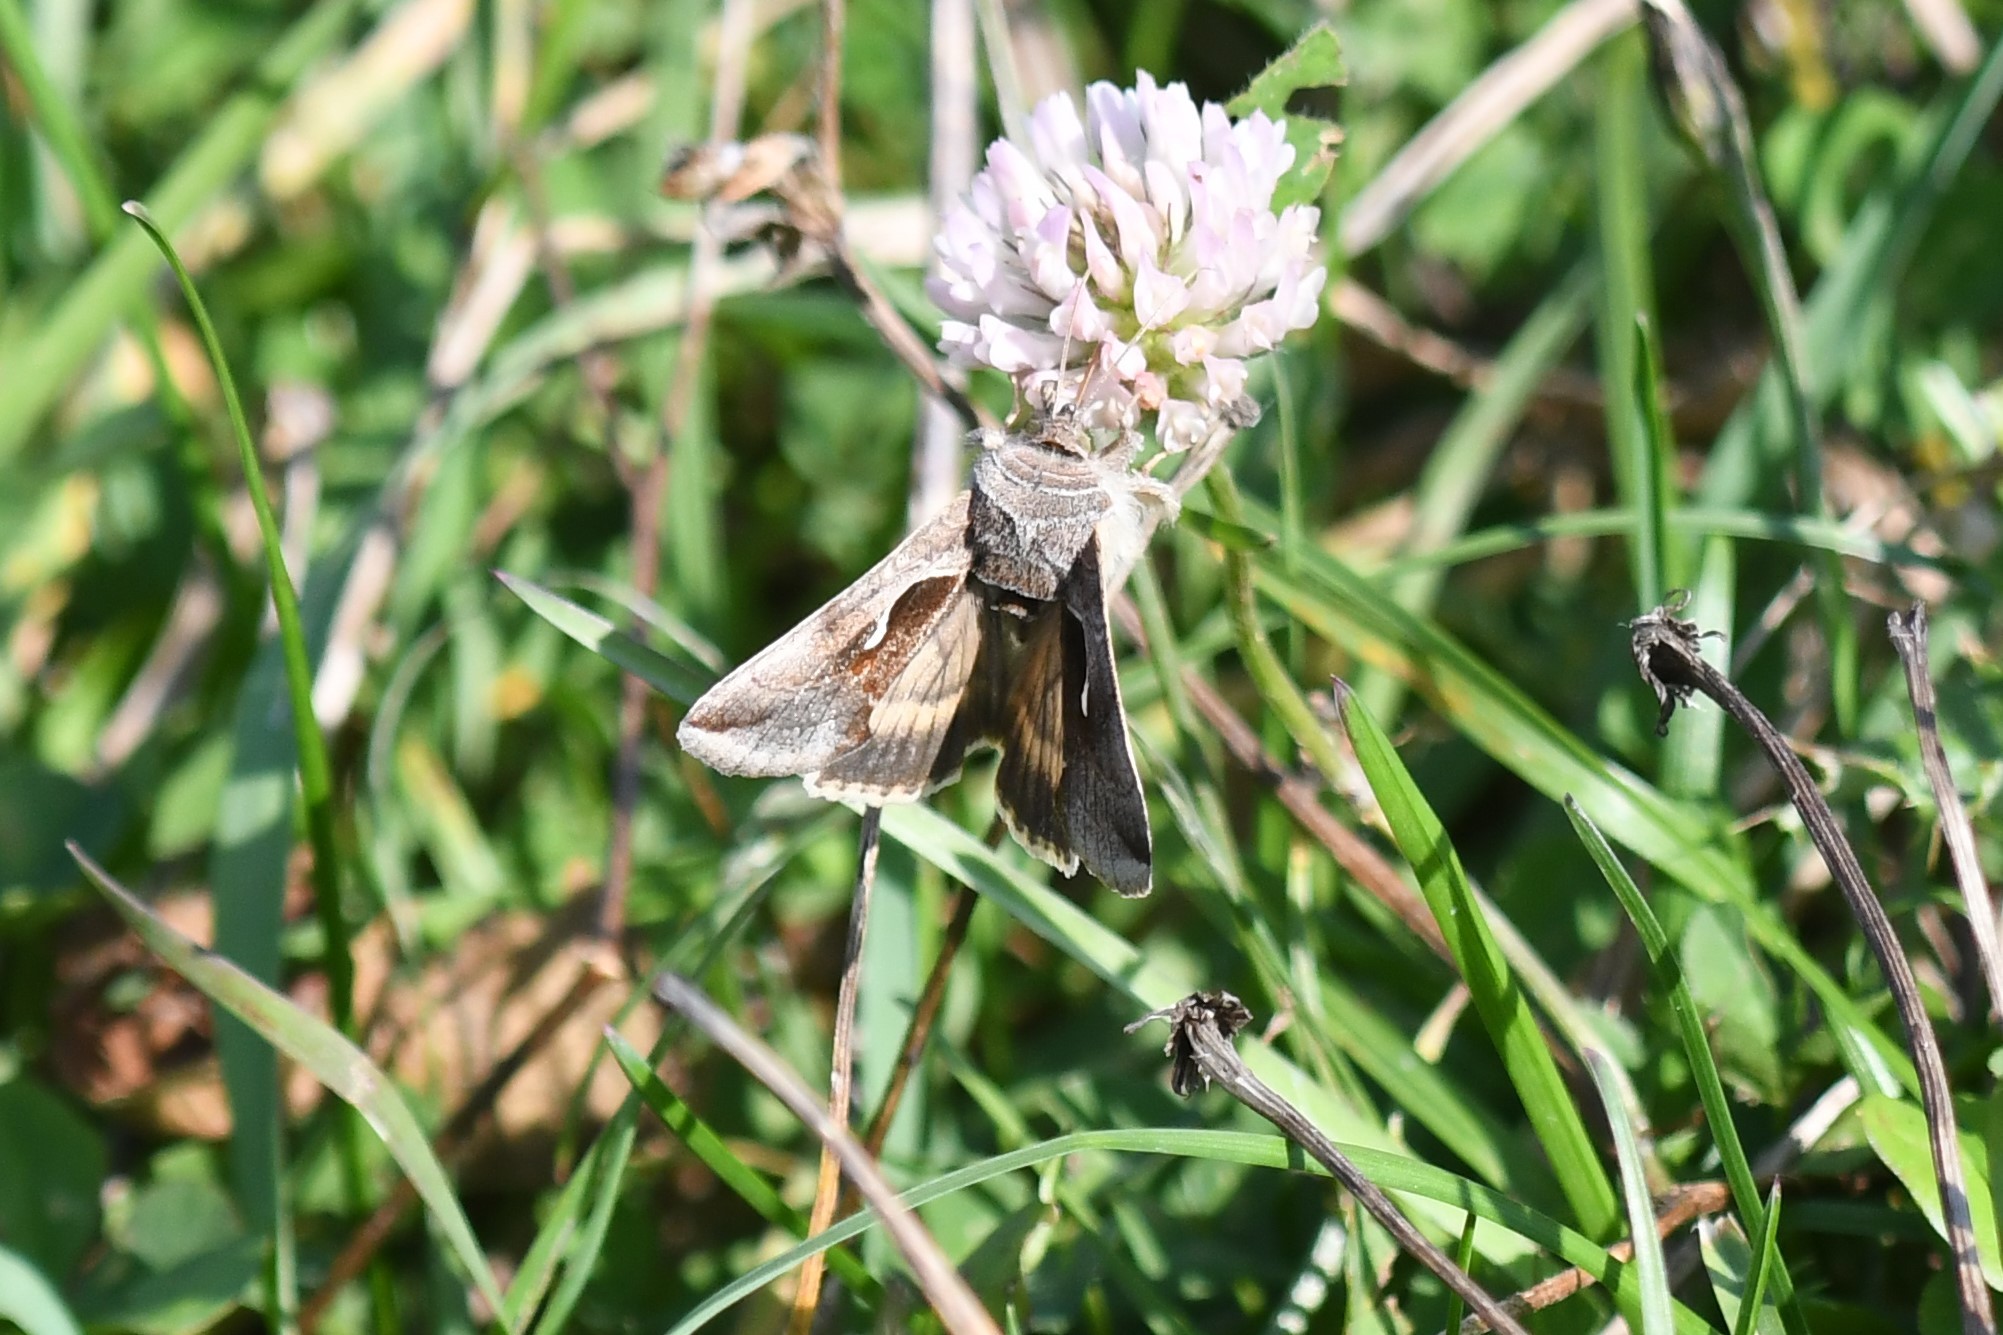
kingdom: Animalia
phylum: Arthropoda
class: Insecta
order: Lepidoptera
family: Noctuidae
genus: Autographa
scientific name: Autographa precationis
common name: Common looper moth
